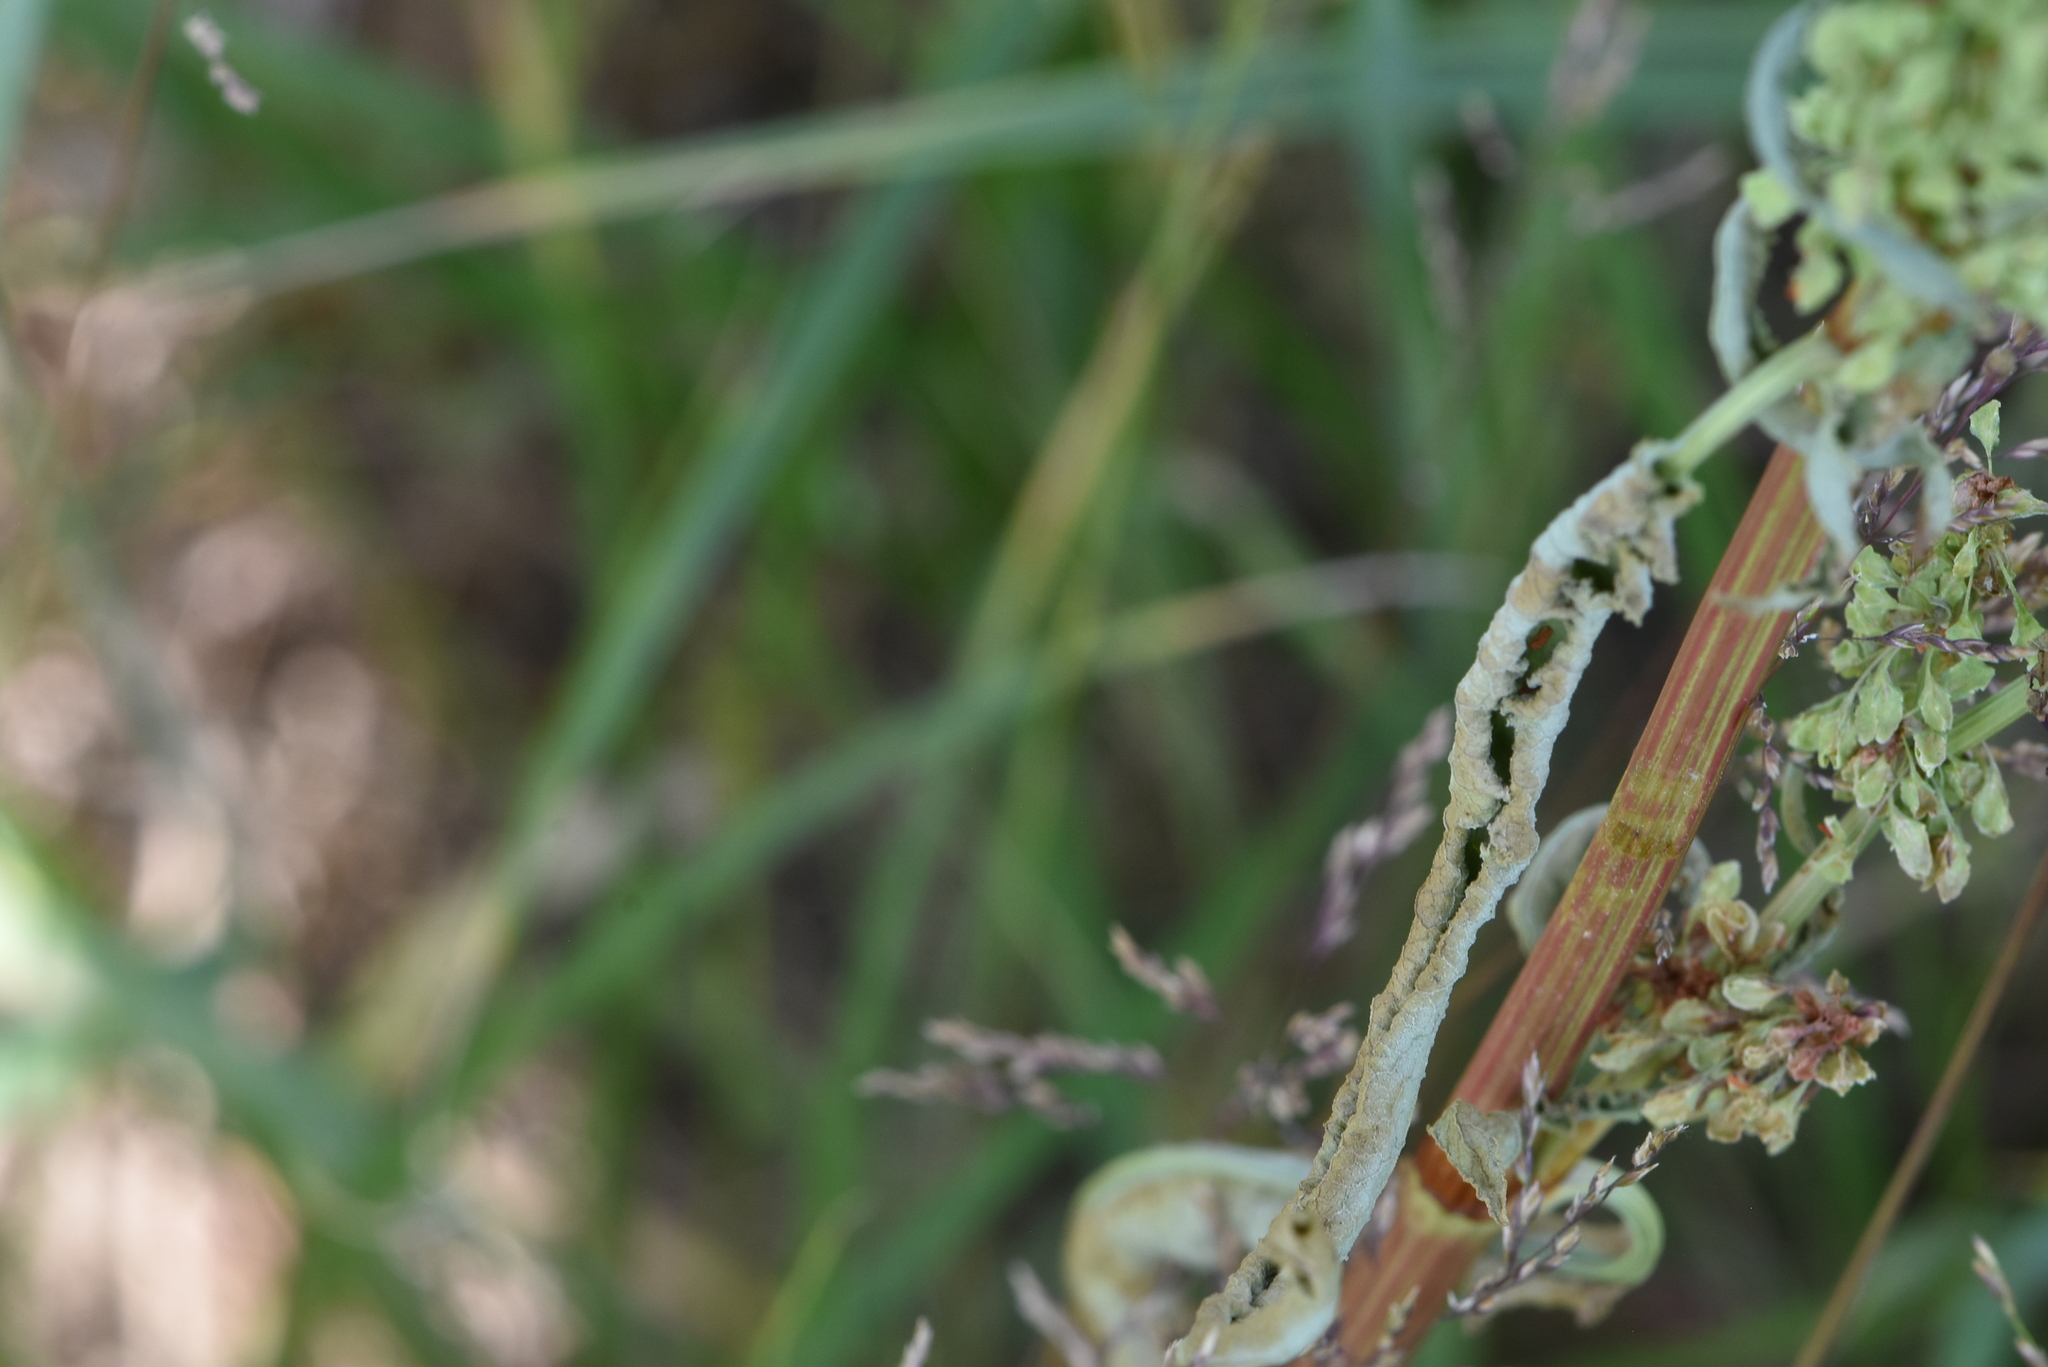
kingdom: Plantae
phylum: Tracheophyta
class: Magnoliopsida
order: Caryophyllales
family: Polygonaceae
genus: Rumex
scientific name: Rumex crispus
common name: Curled dock
